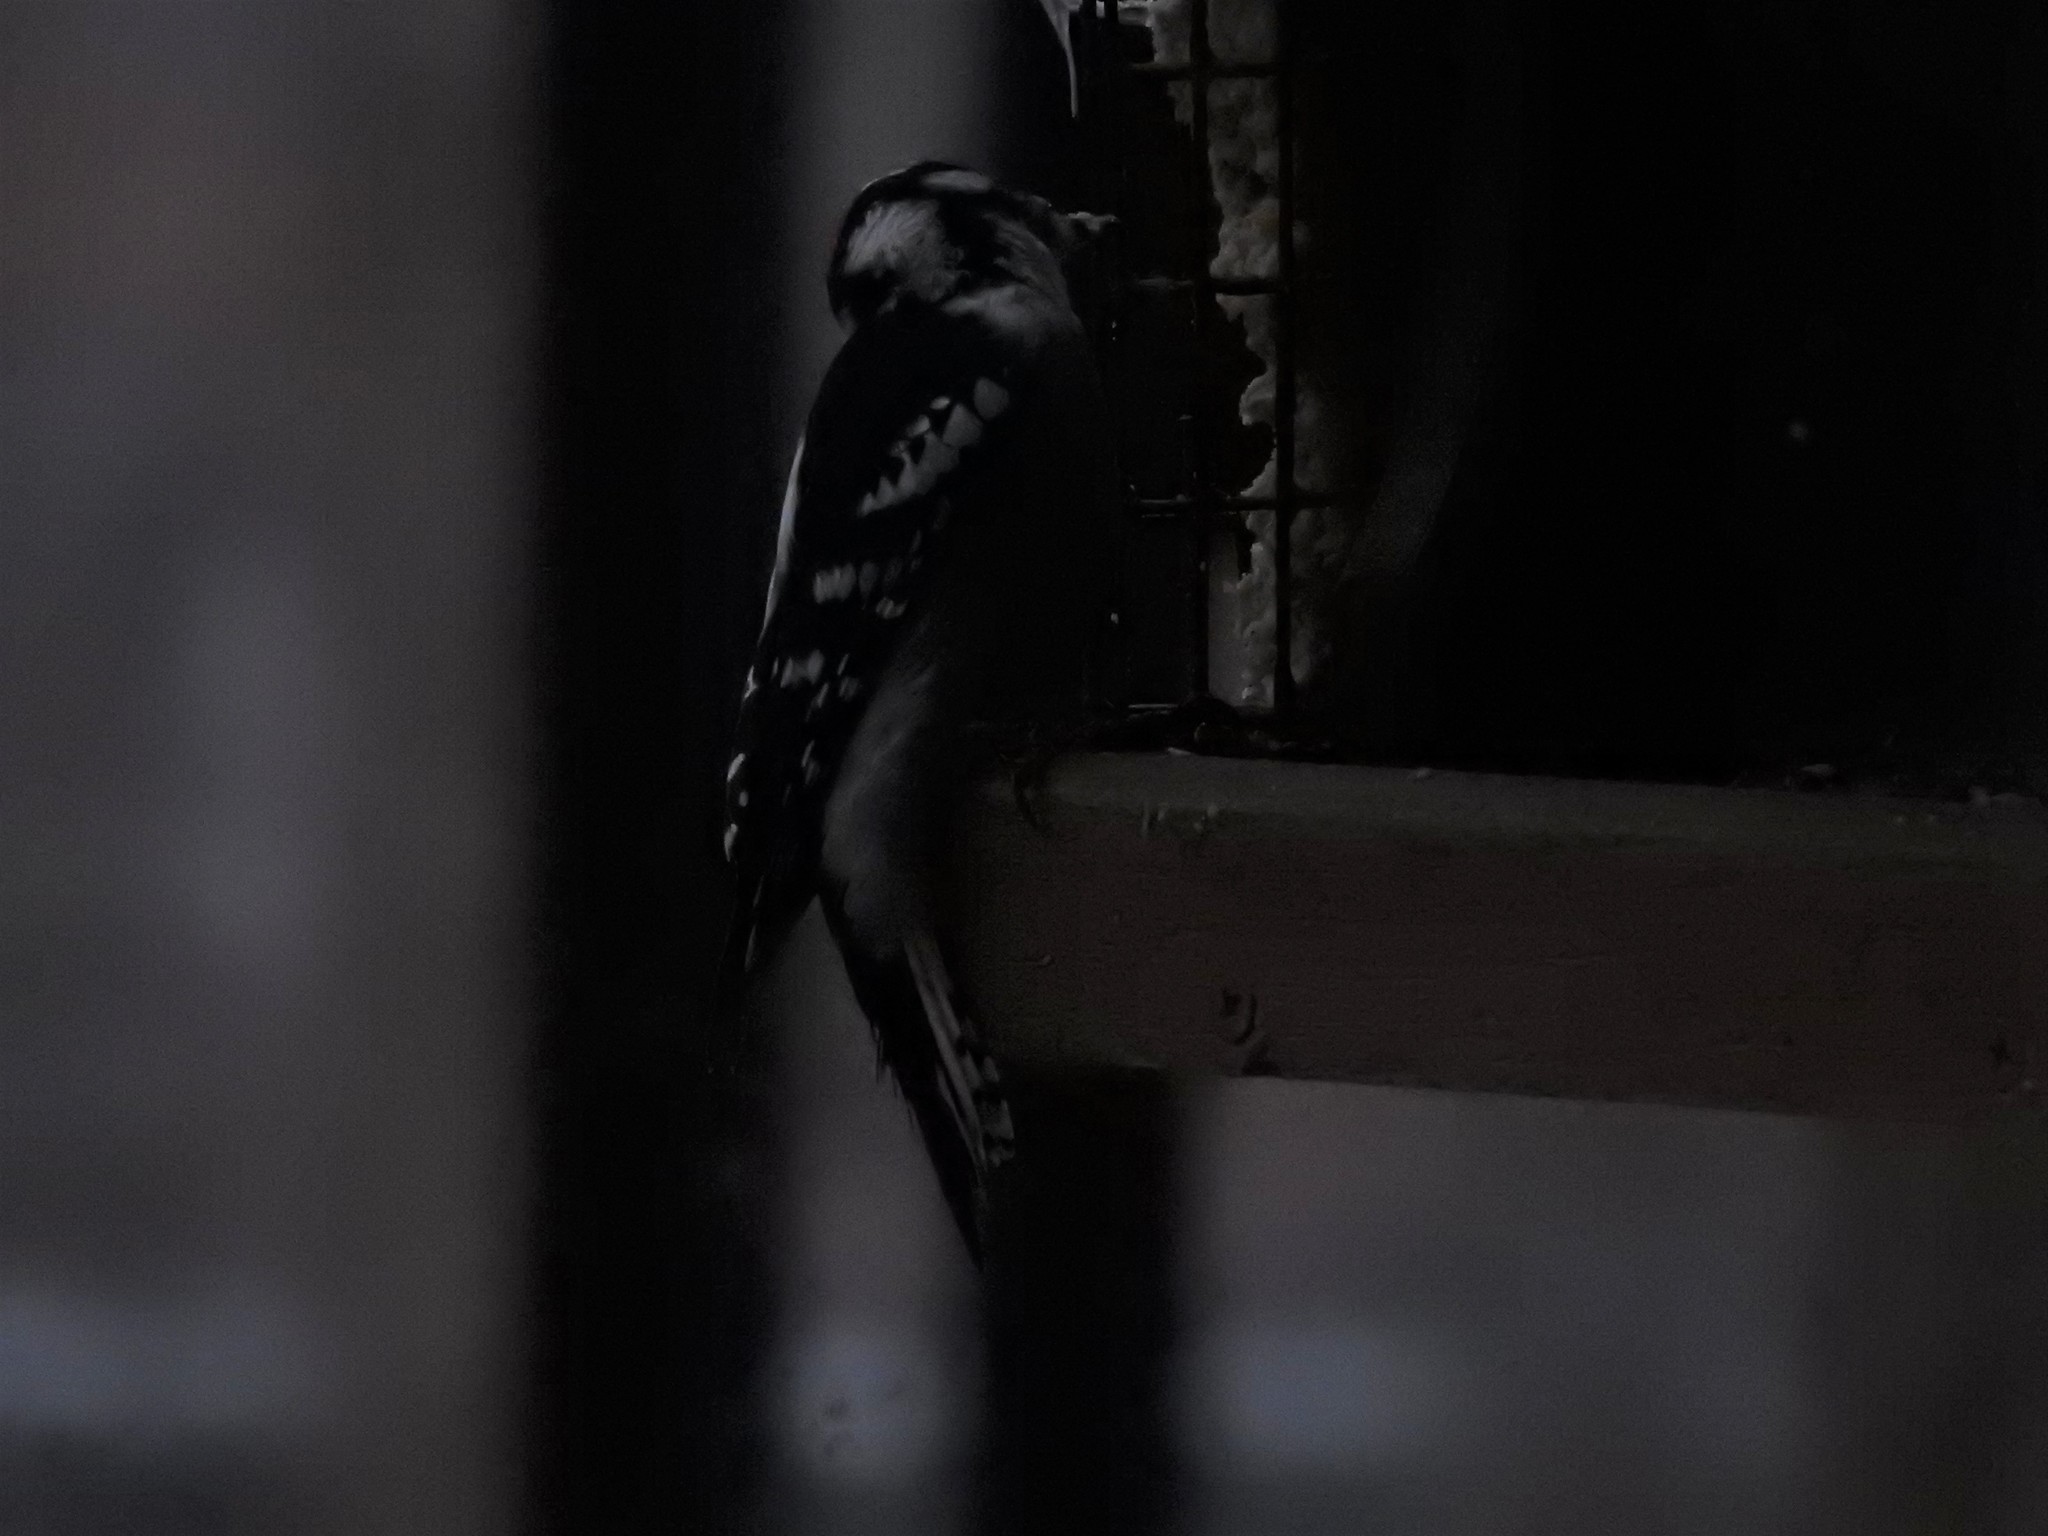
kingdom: Animalia
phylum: Chordata
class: Aves
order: Piciformes
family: Picidae
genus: Dryobates
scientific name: Dryobates pubescens
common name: Downy woodpecker
